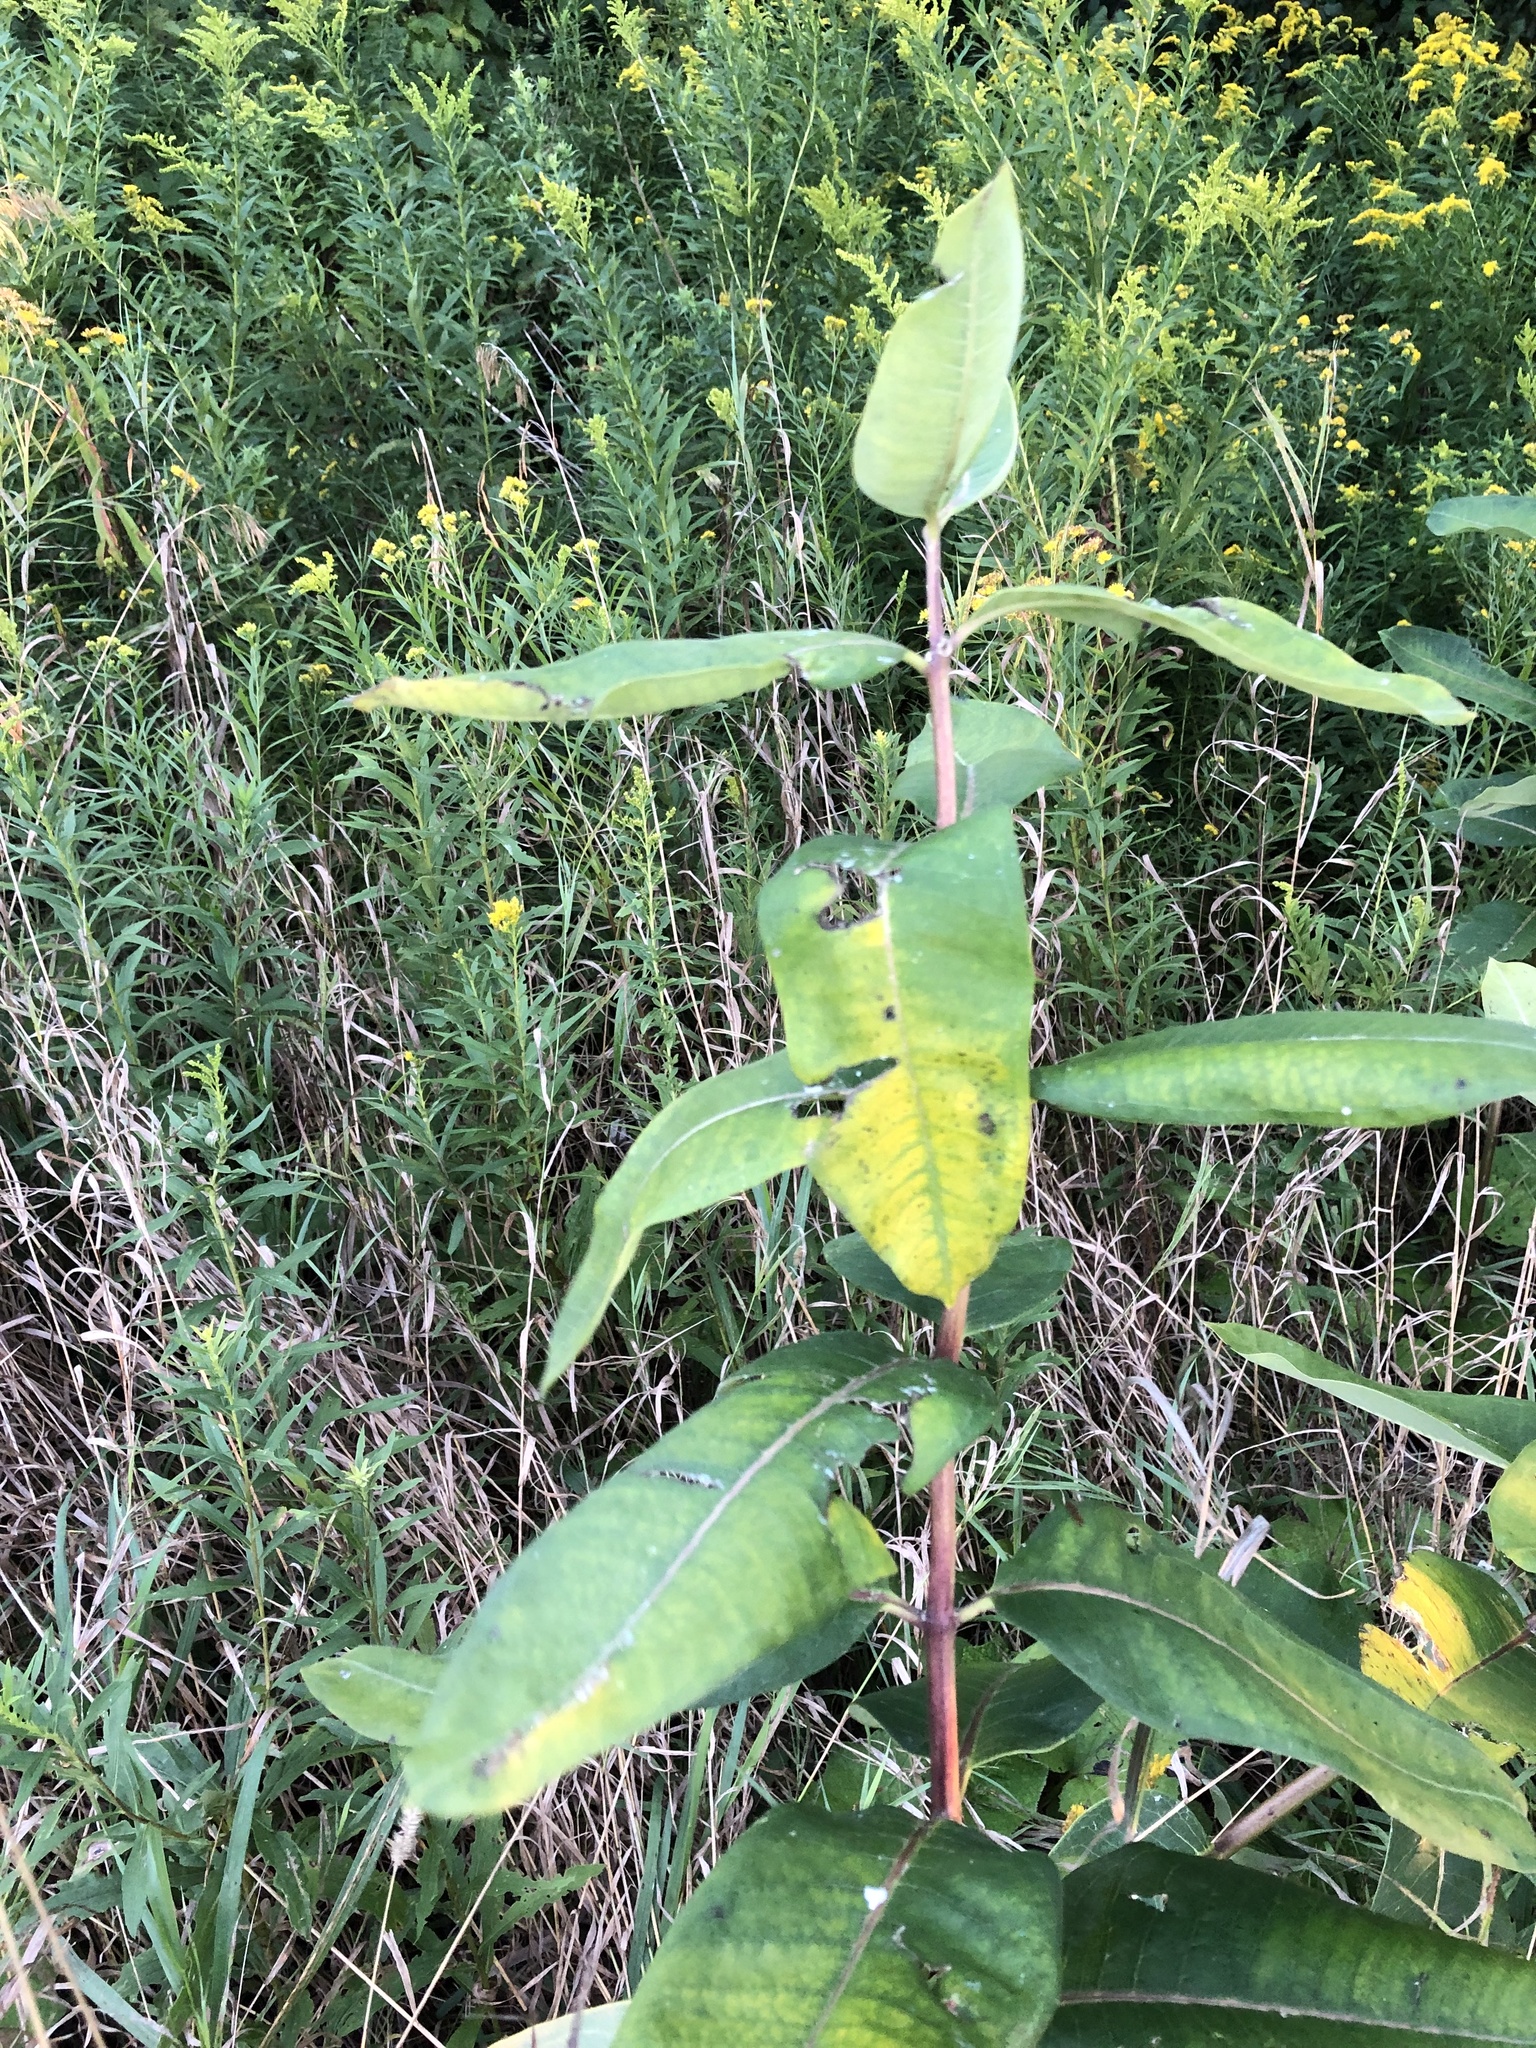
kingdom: Plantae
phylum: Tracheophyta
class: Magnoliopsida
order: Gentianales
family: Apocynaceae
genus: Asclepias
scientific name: Asclepias syriaca
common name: Common milkweed
